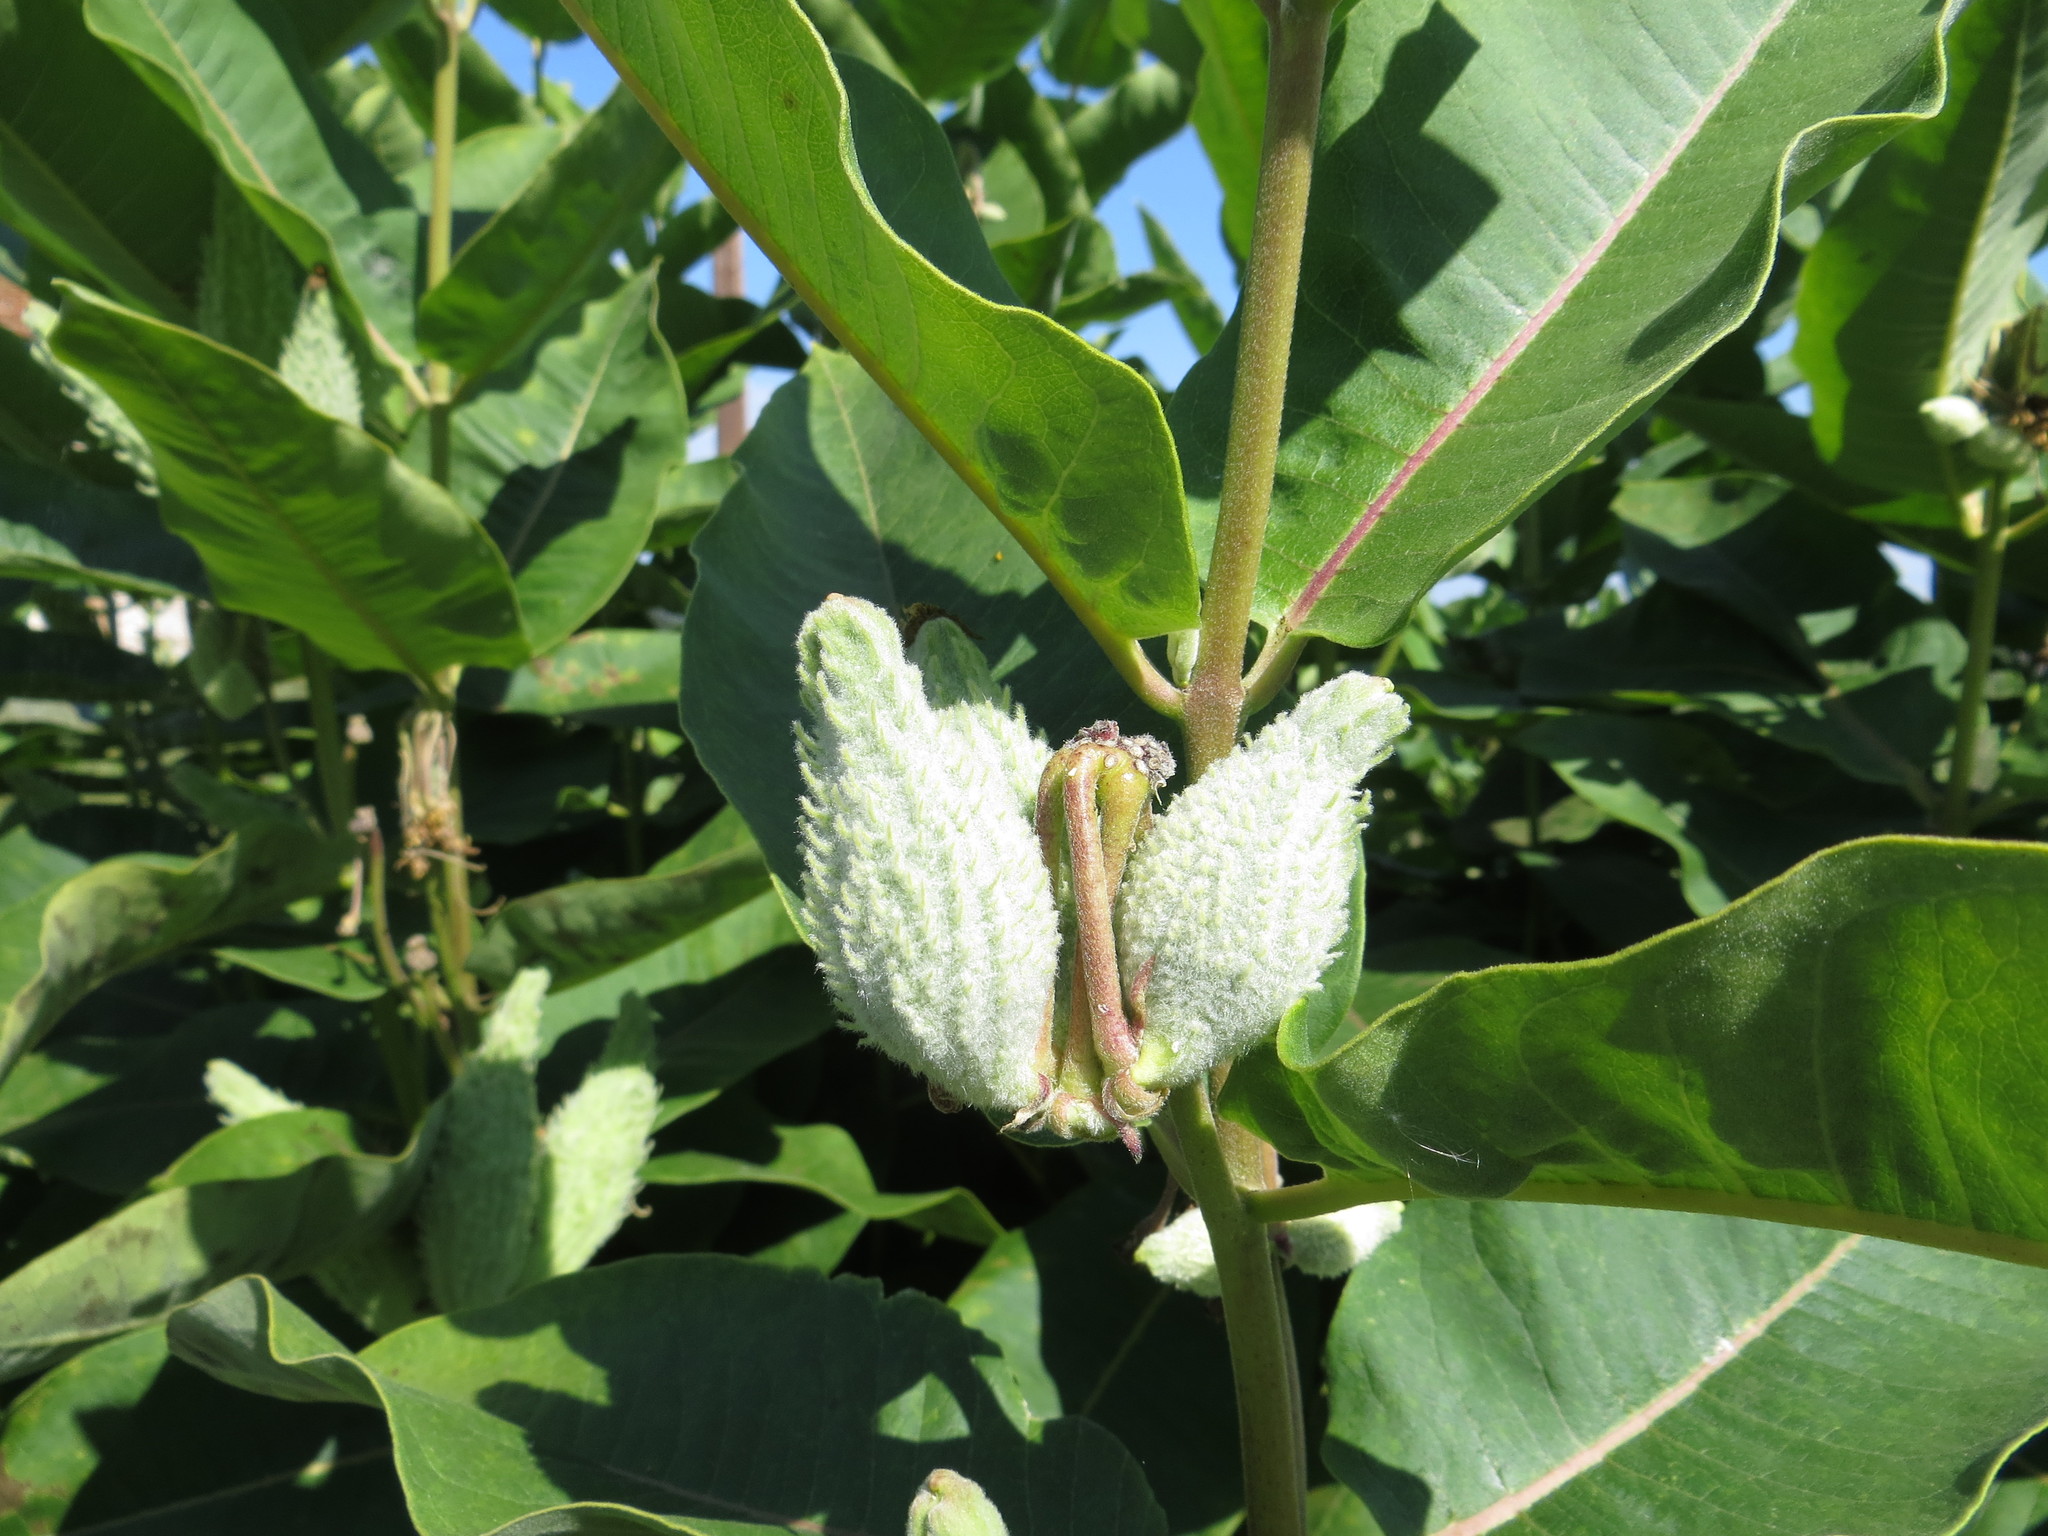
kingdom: Plantae
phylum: Tracheophyta
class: Magnoliopsida
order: Gentianales
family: Apocynaceae
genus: Asclepias
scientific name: Asclepias syriaca
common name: Common milkweed
